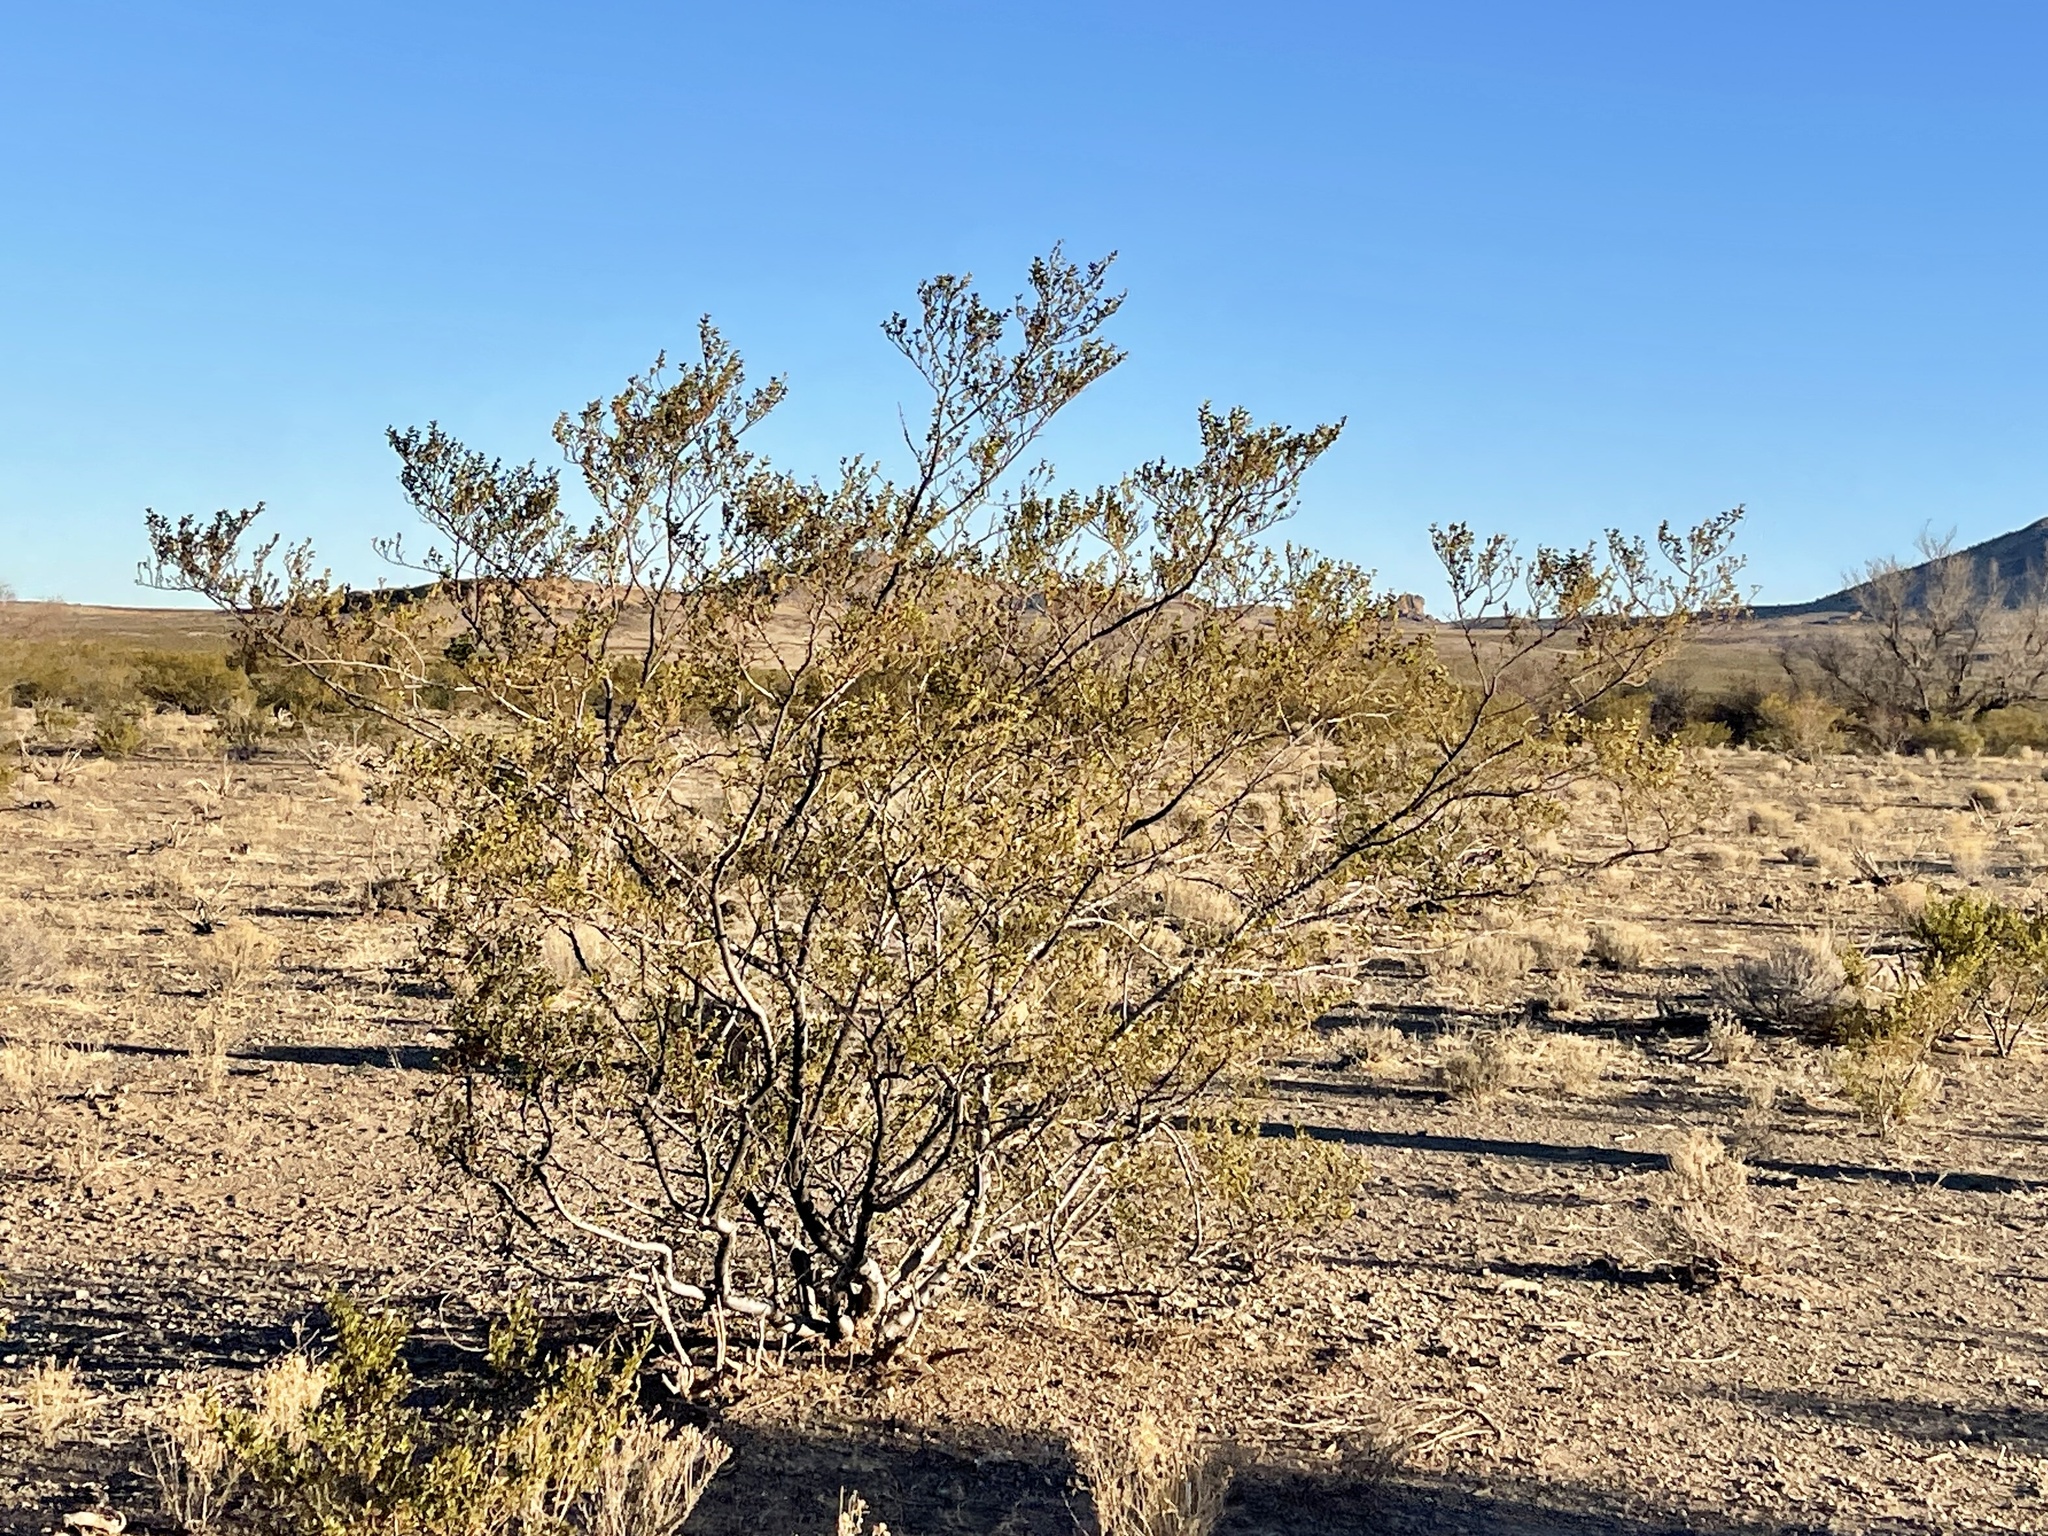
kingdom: Plantae
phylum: Tracheophyta
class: Magnoliopsida
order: Zygophyllales
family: Zygophyllaceae
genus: Larrea
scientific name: Larrea tridentata
